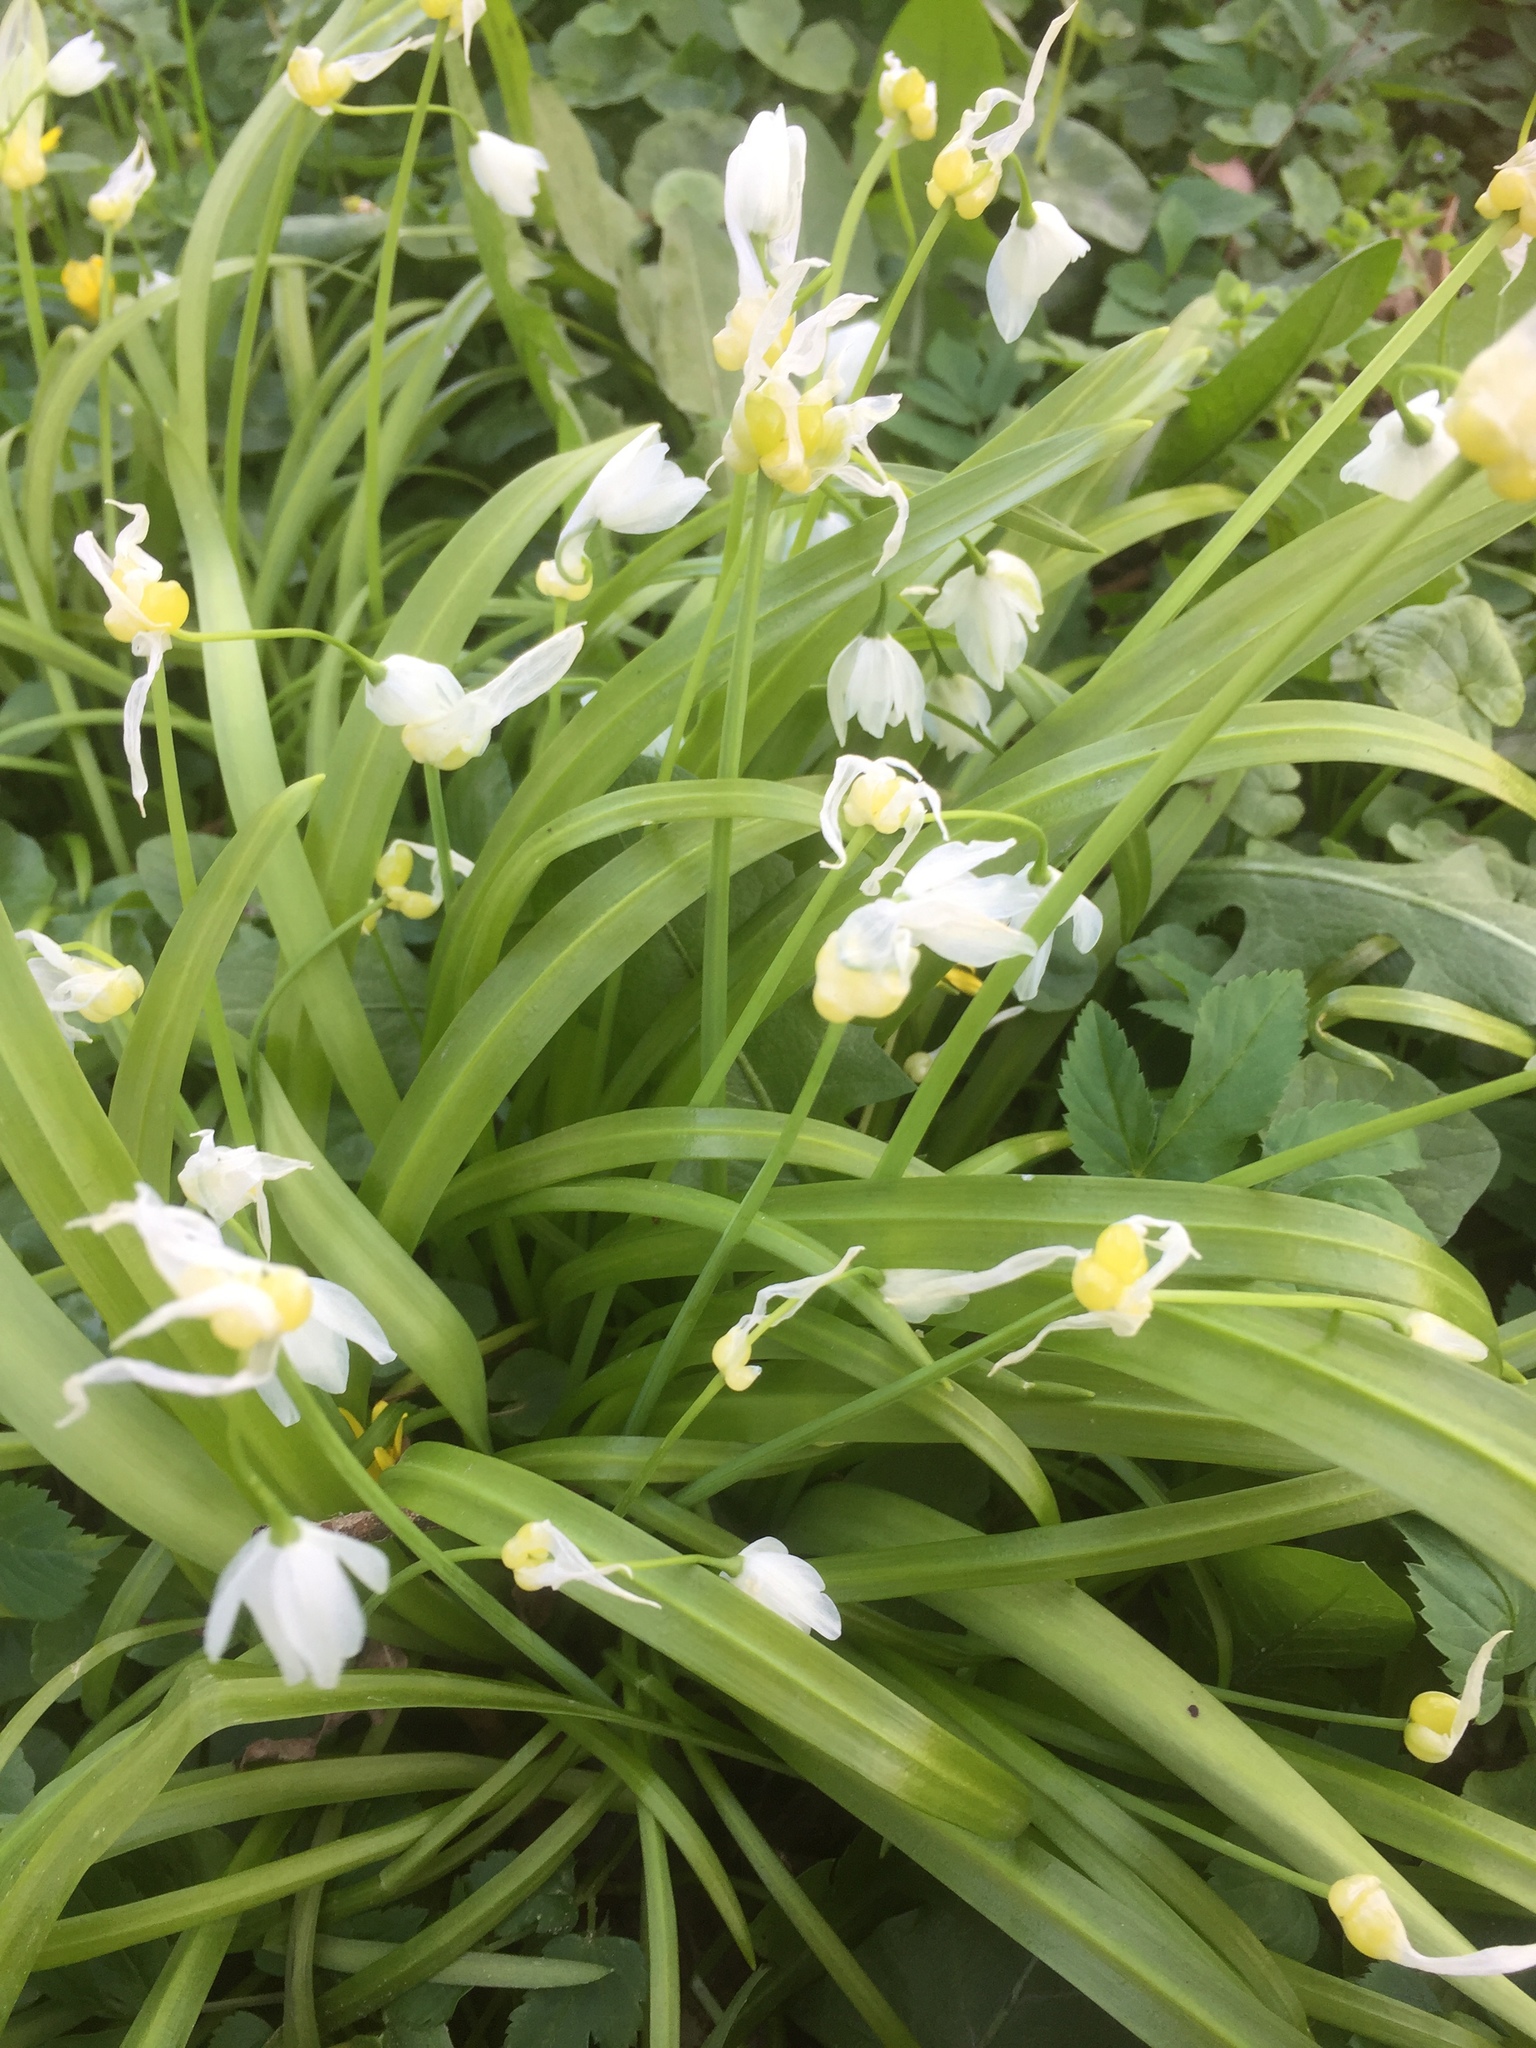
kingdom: Plantae
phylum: Tracheophyta
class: Liliopsida
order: Asparagales
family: Amaryllidaceae
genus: Allium
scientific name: Allium paradoxum
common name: Few-flowered garlic
